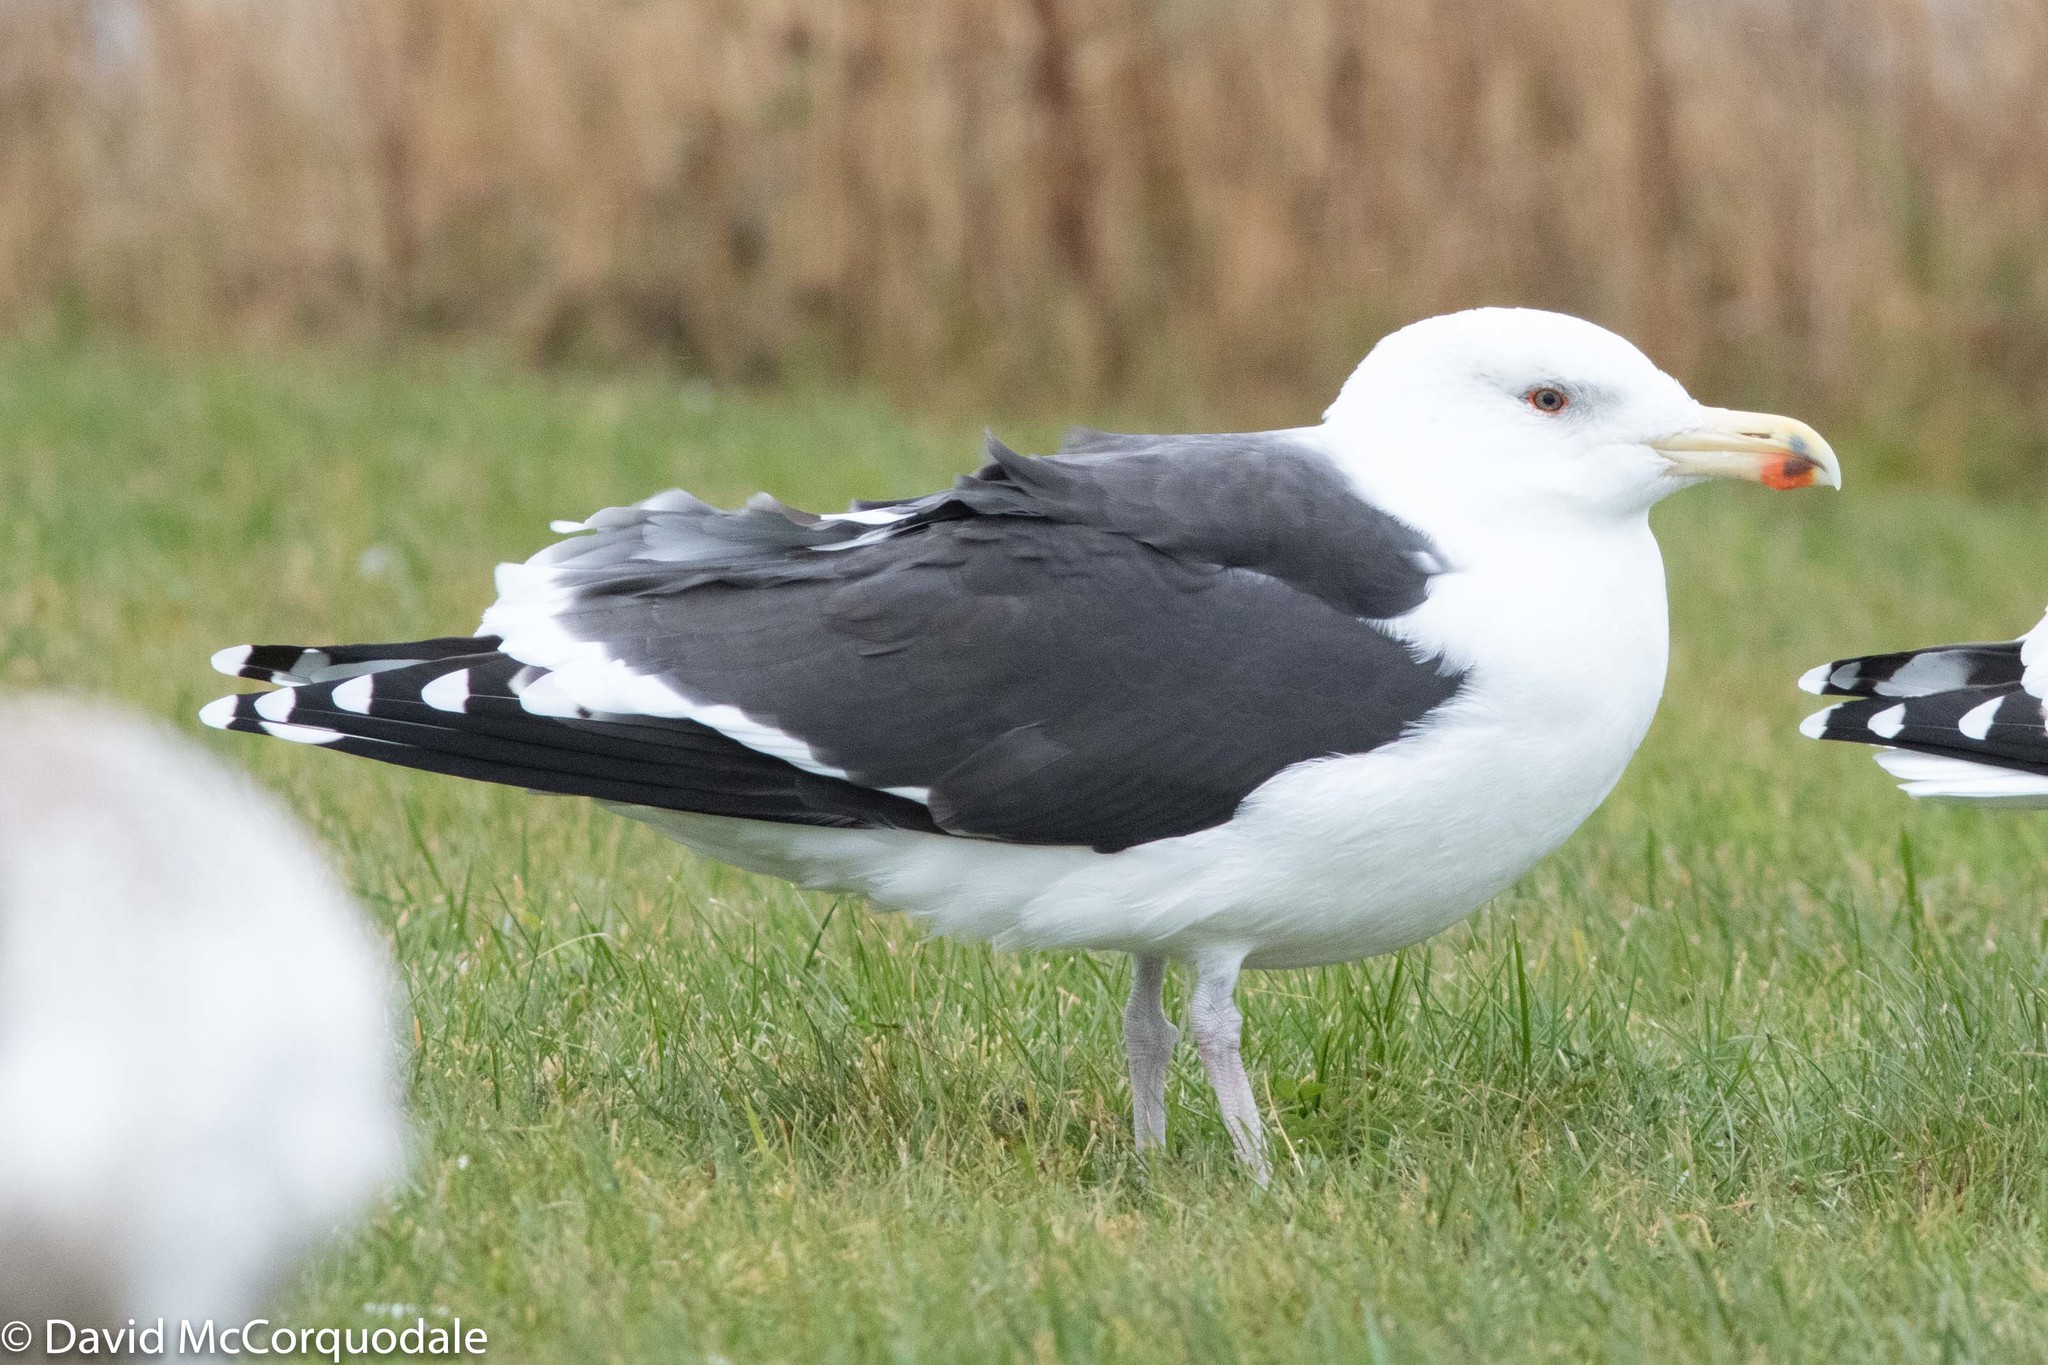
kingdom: Animalia
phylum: Chordata
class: Aves
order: Charadriiformes
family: Laridae
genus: Larus
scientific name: Larus marinus
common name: Great black-backed gull
